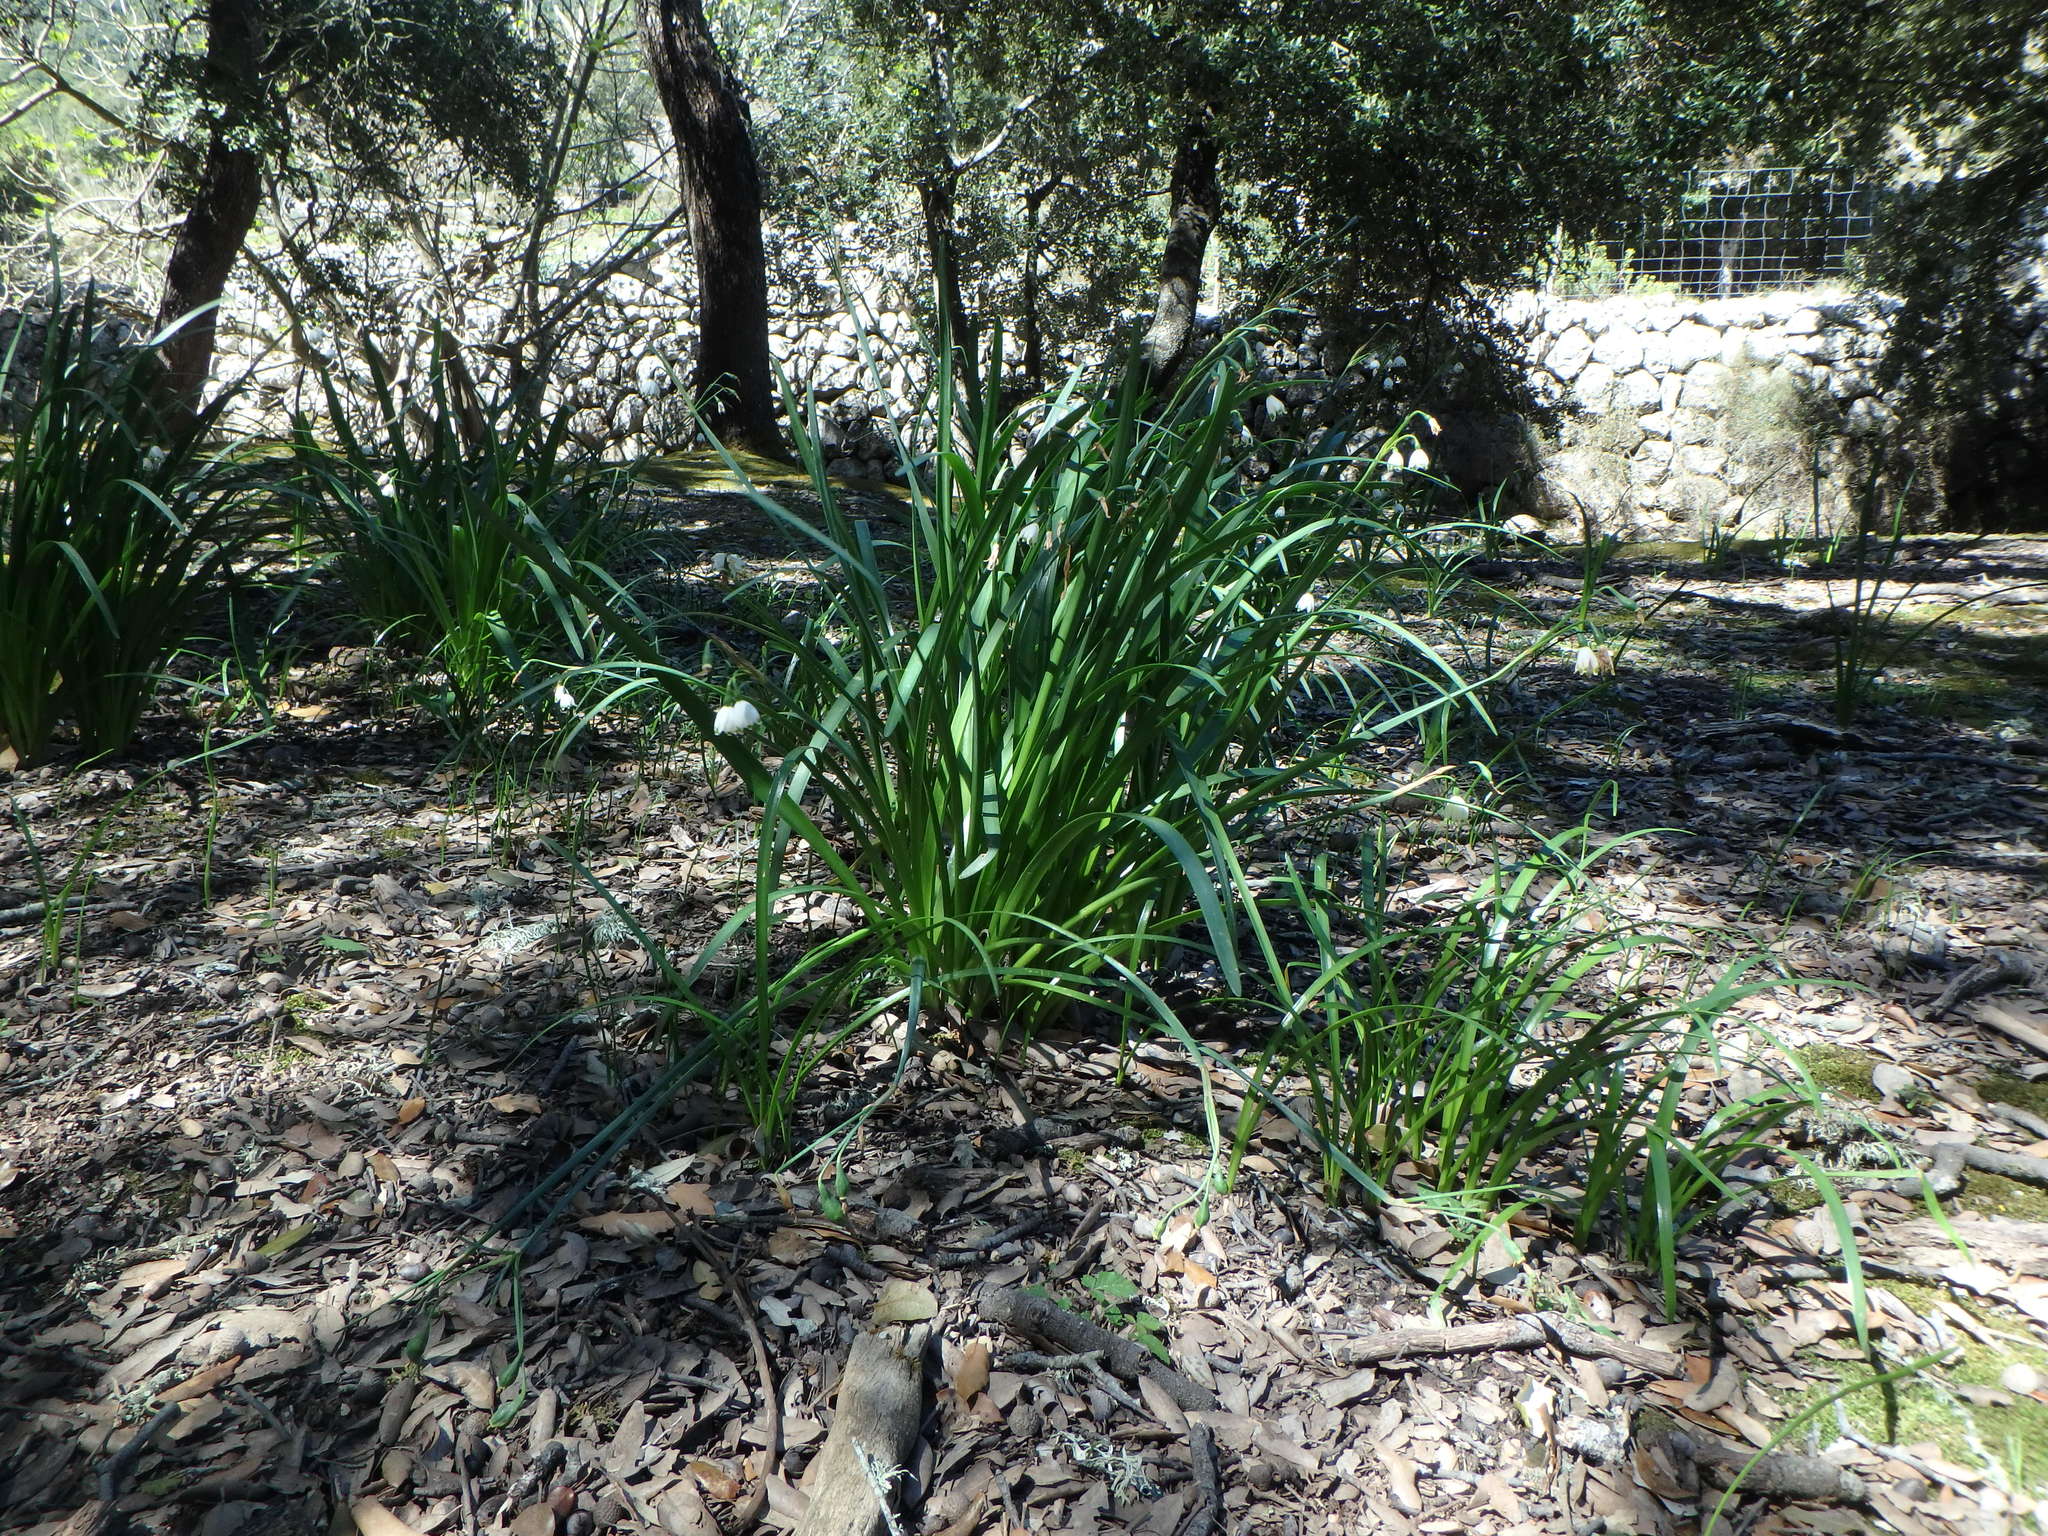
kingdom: Plantae
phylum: Tracheophyta
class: Liliopsida
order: Asparagales
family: Amaryllidaceae
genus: Leucojum
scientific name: Leucojum aestivum
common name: Summer snowflake
